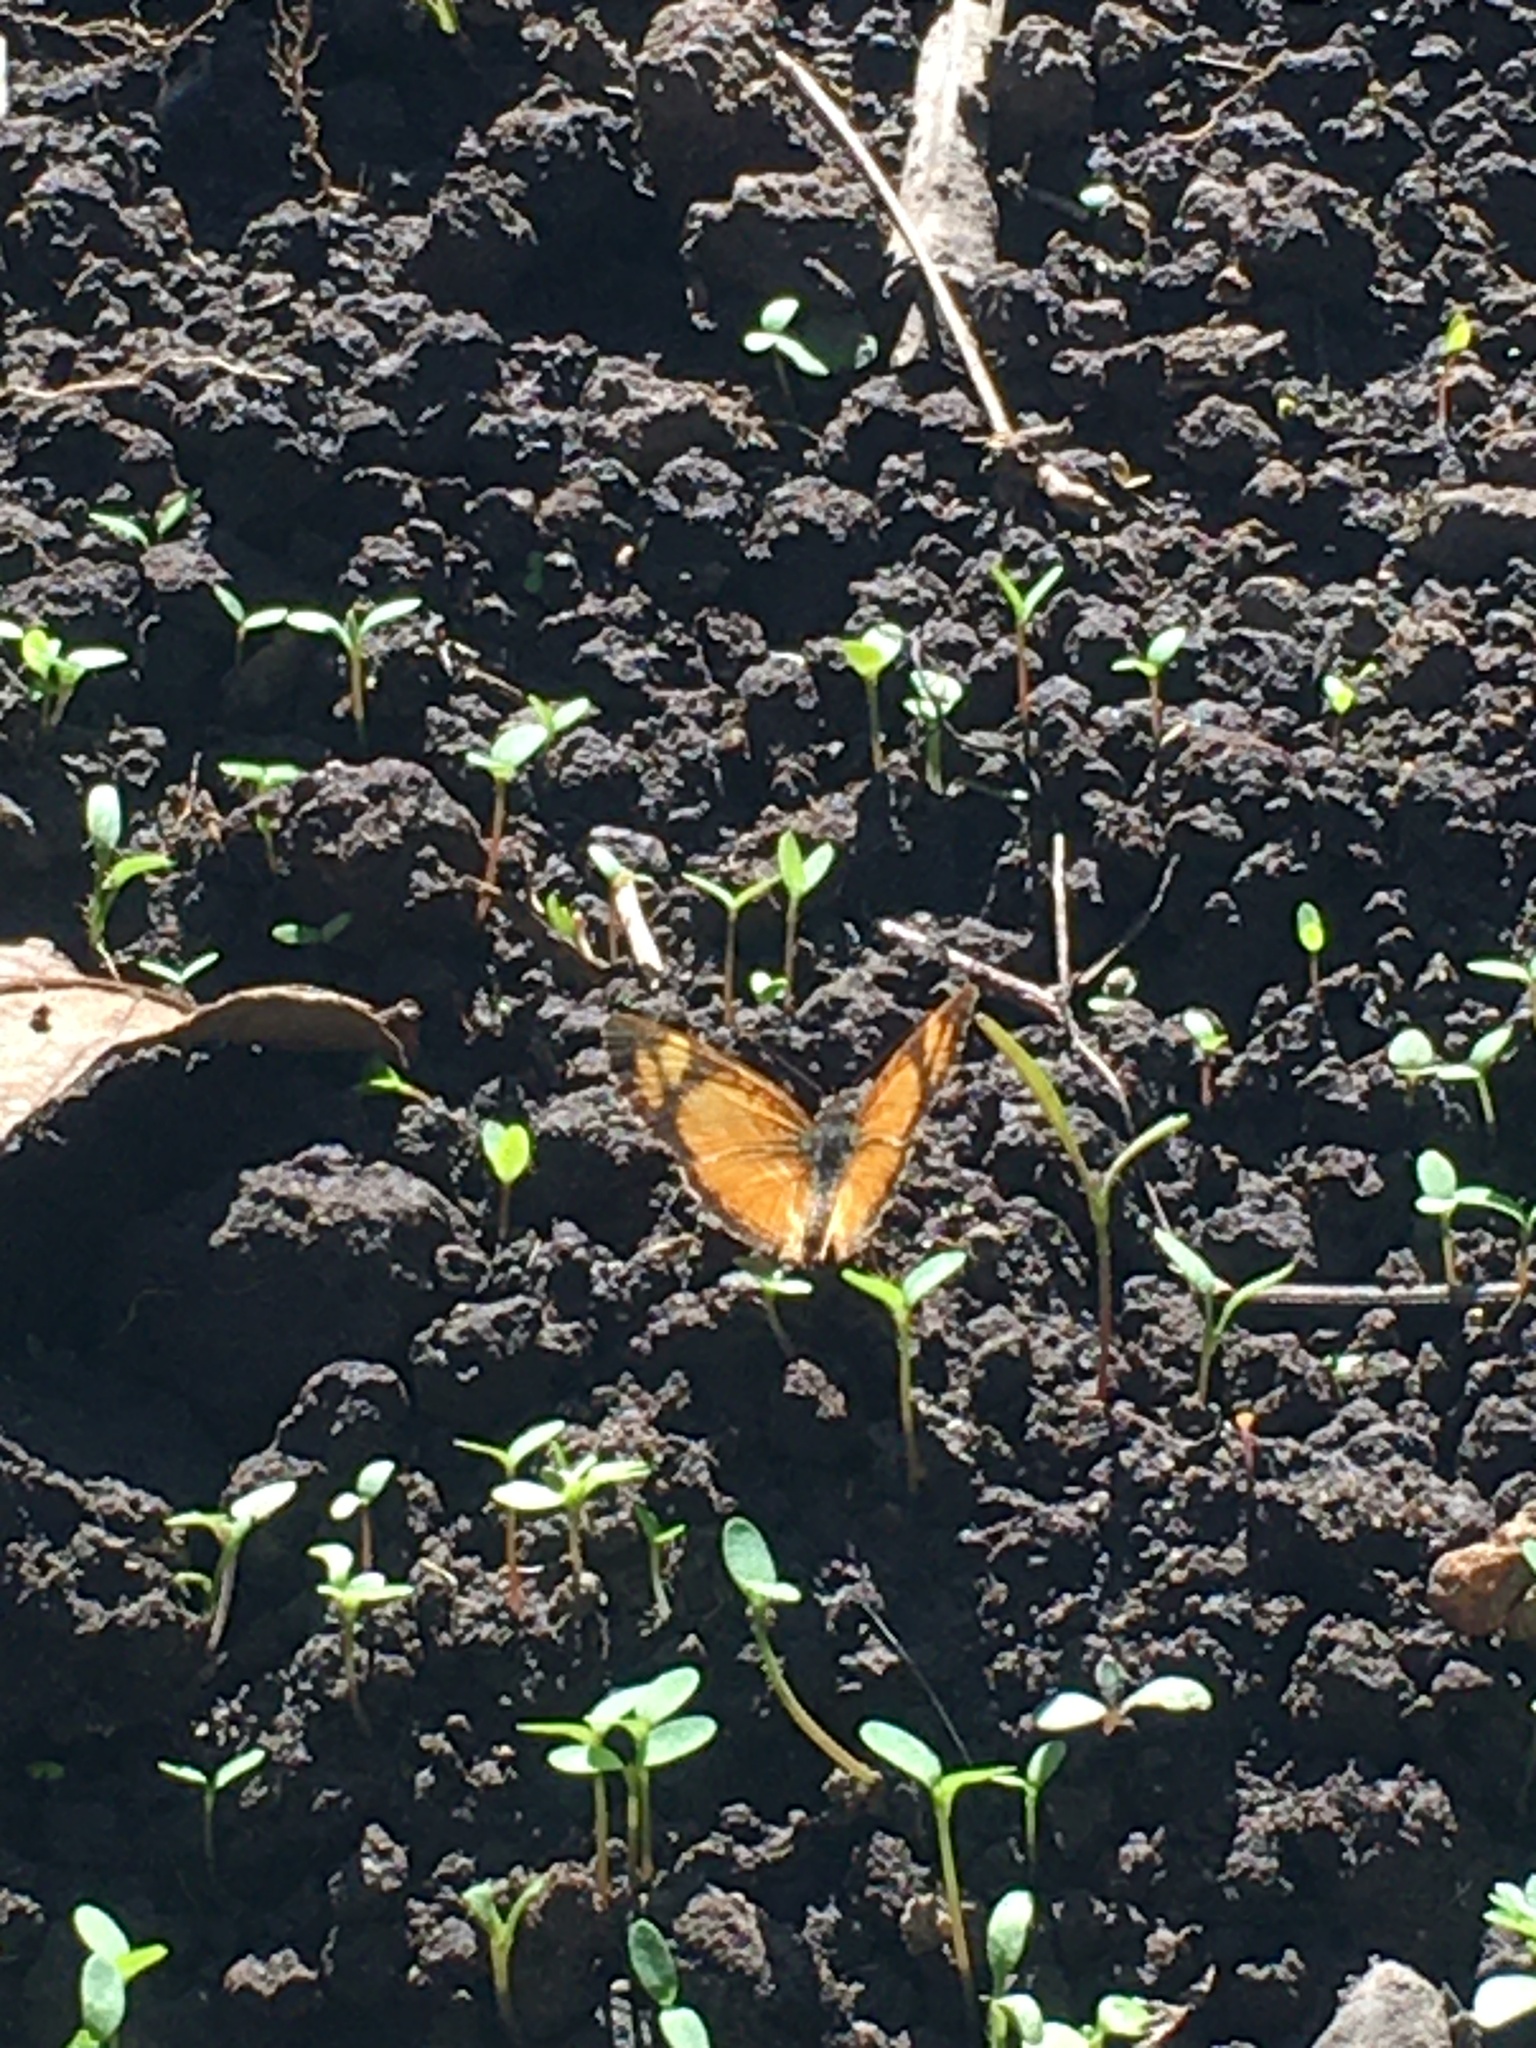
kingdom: Animalia
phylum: Arthropoda
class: Insecta
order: Lepidoptera
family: Nymphalidae
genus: Tegosa
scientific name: Tegosa claudina
